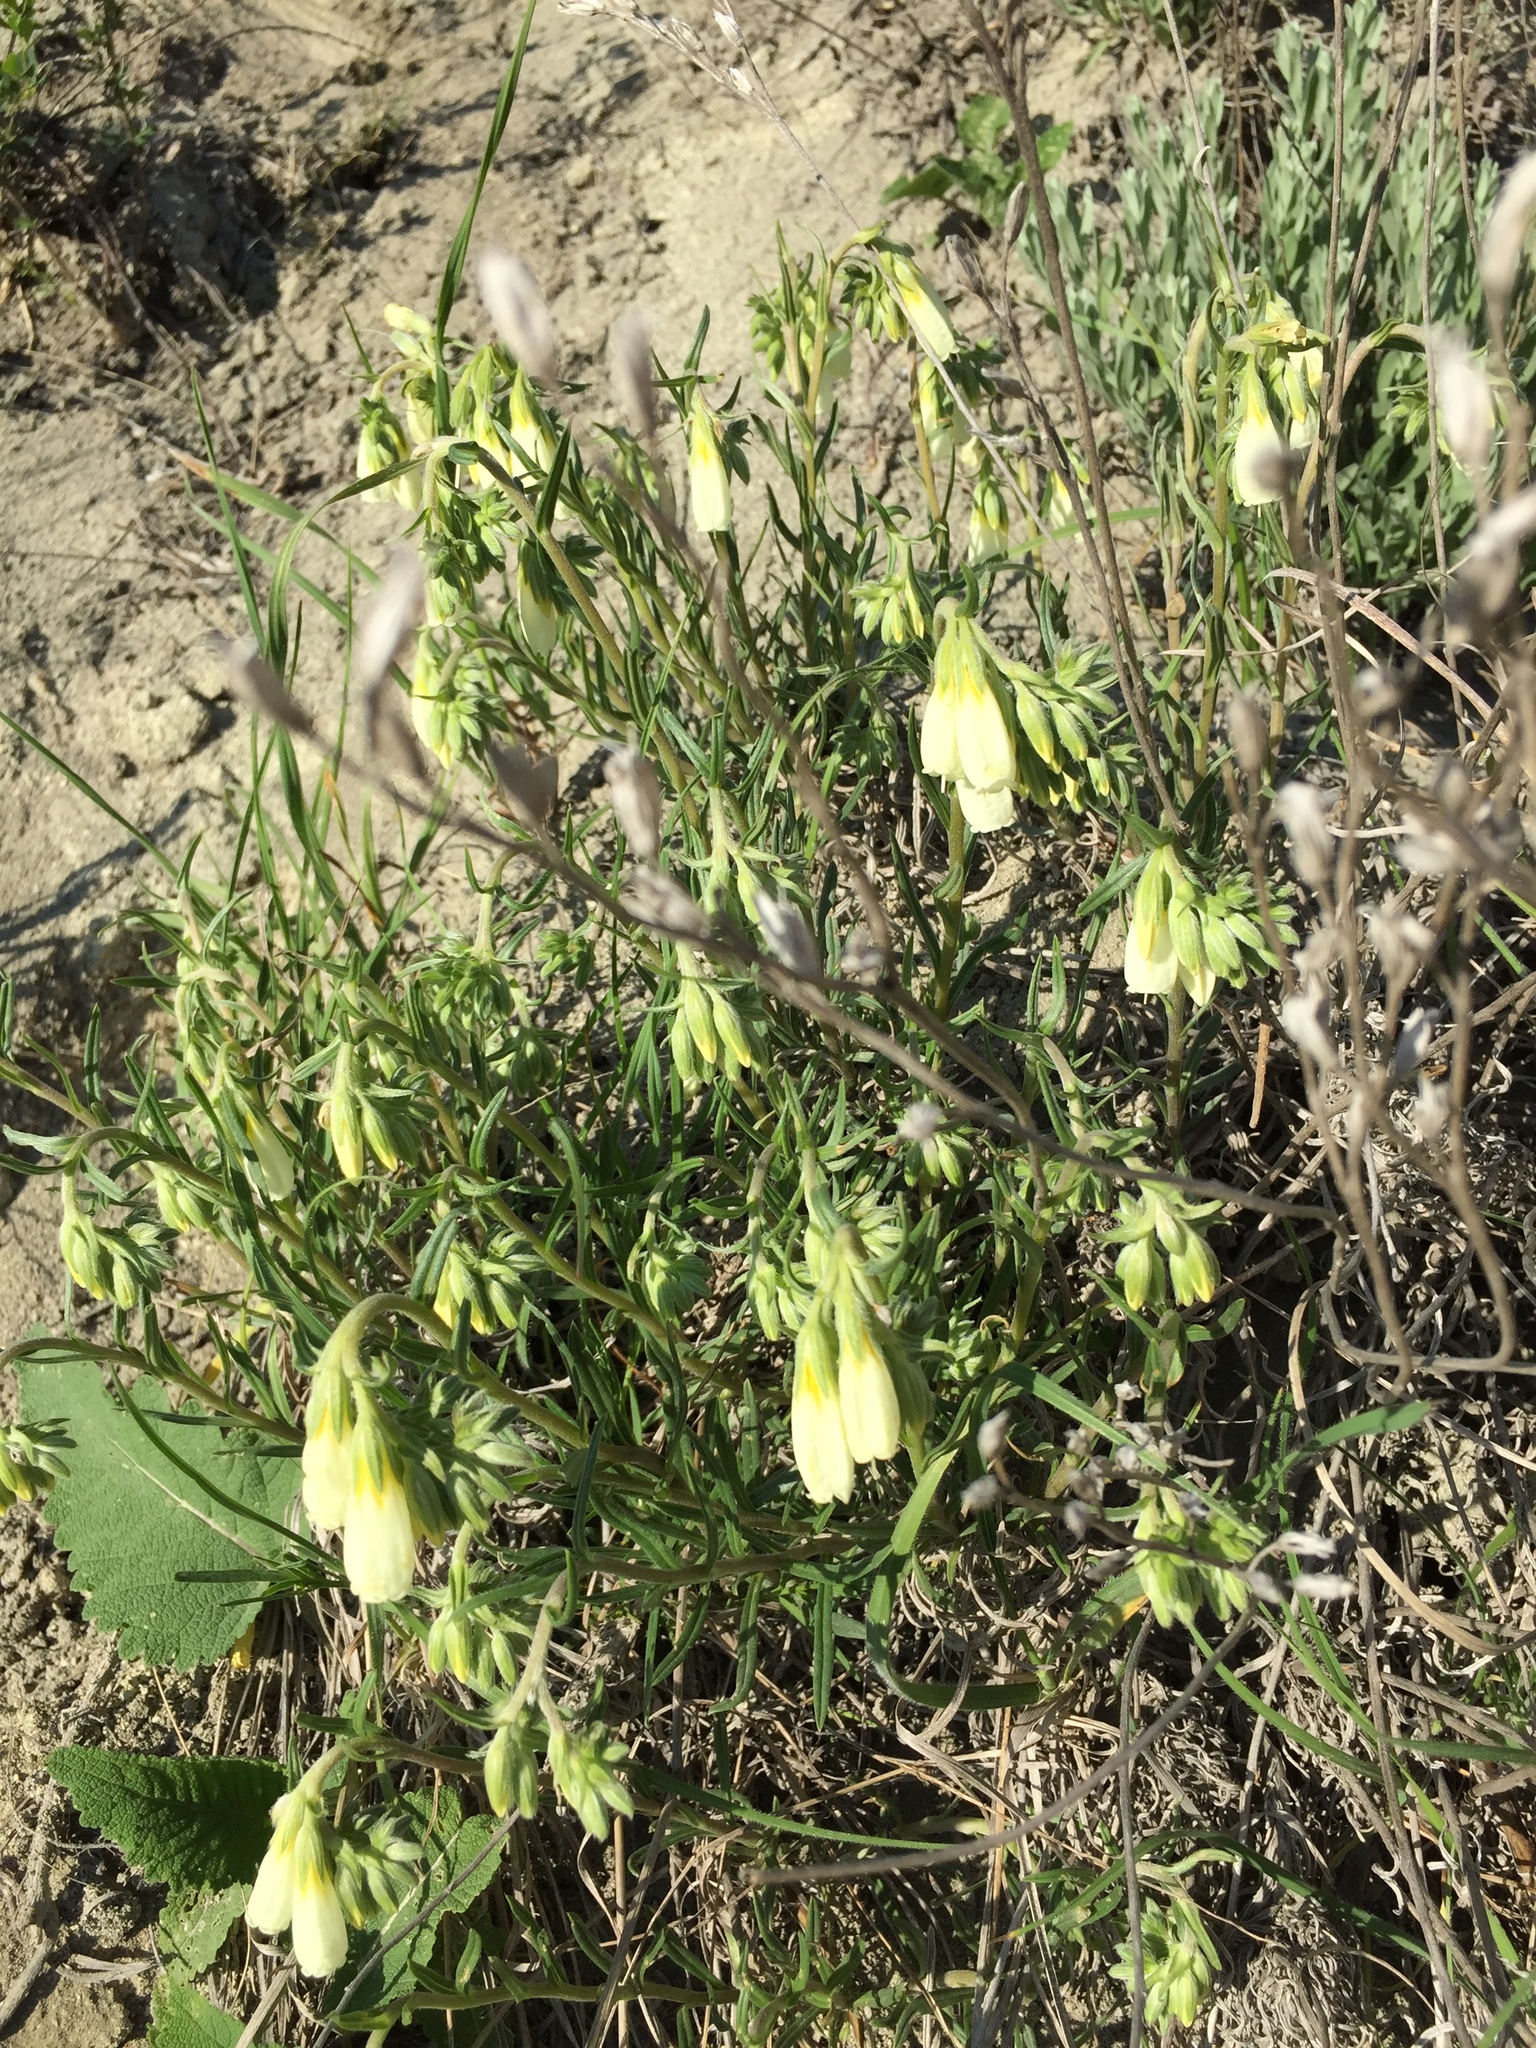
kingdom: Plantae
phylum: Tracheophyta
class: Magnoliopsida
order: Boraginales
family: Boraginaceae
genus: Onosma
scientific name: Onosma simplicissima
